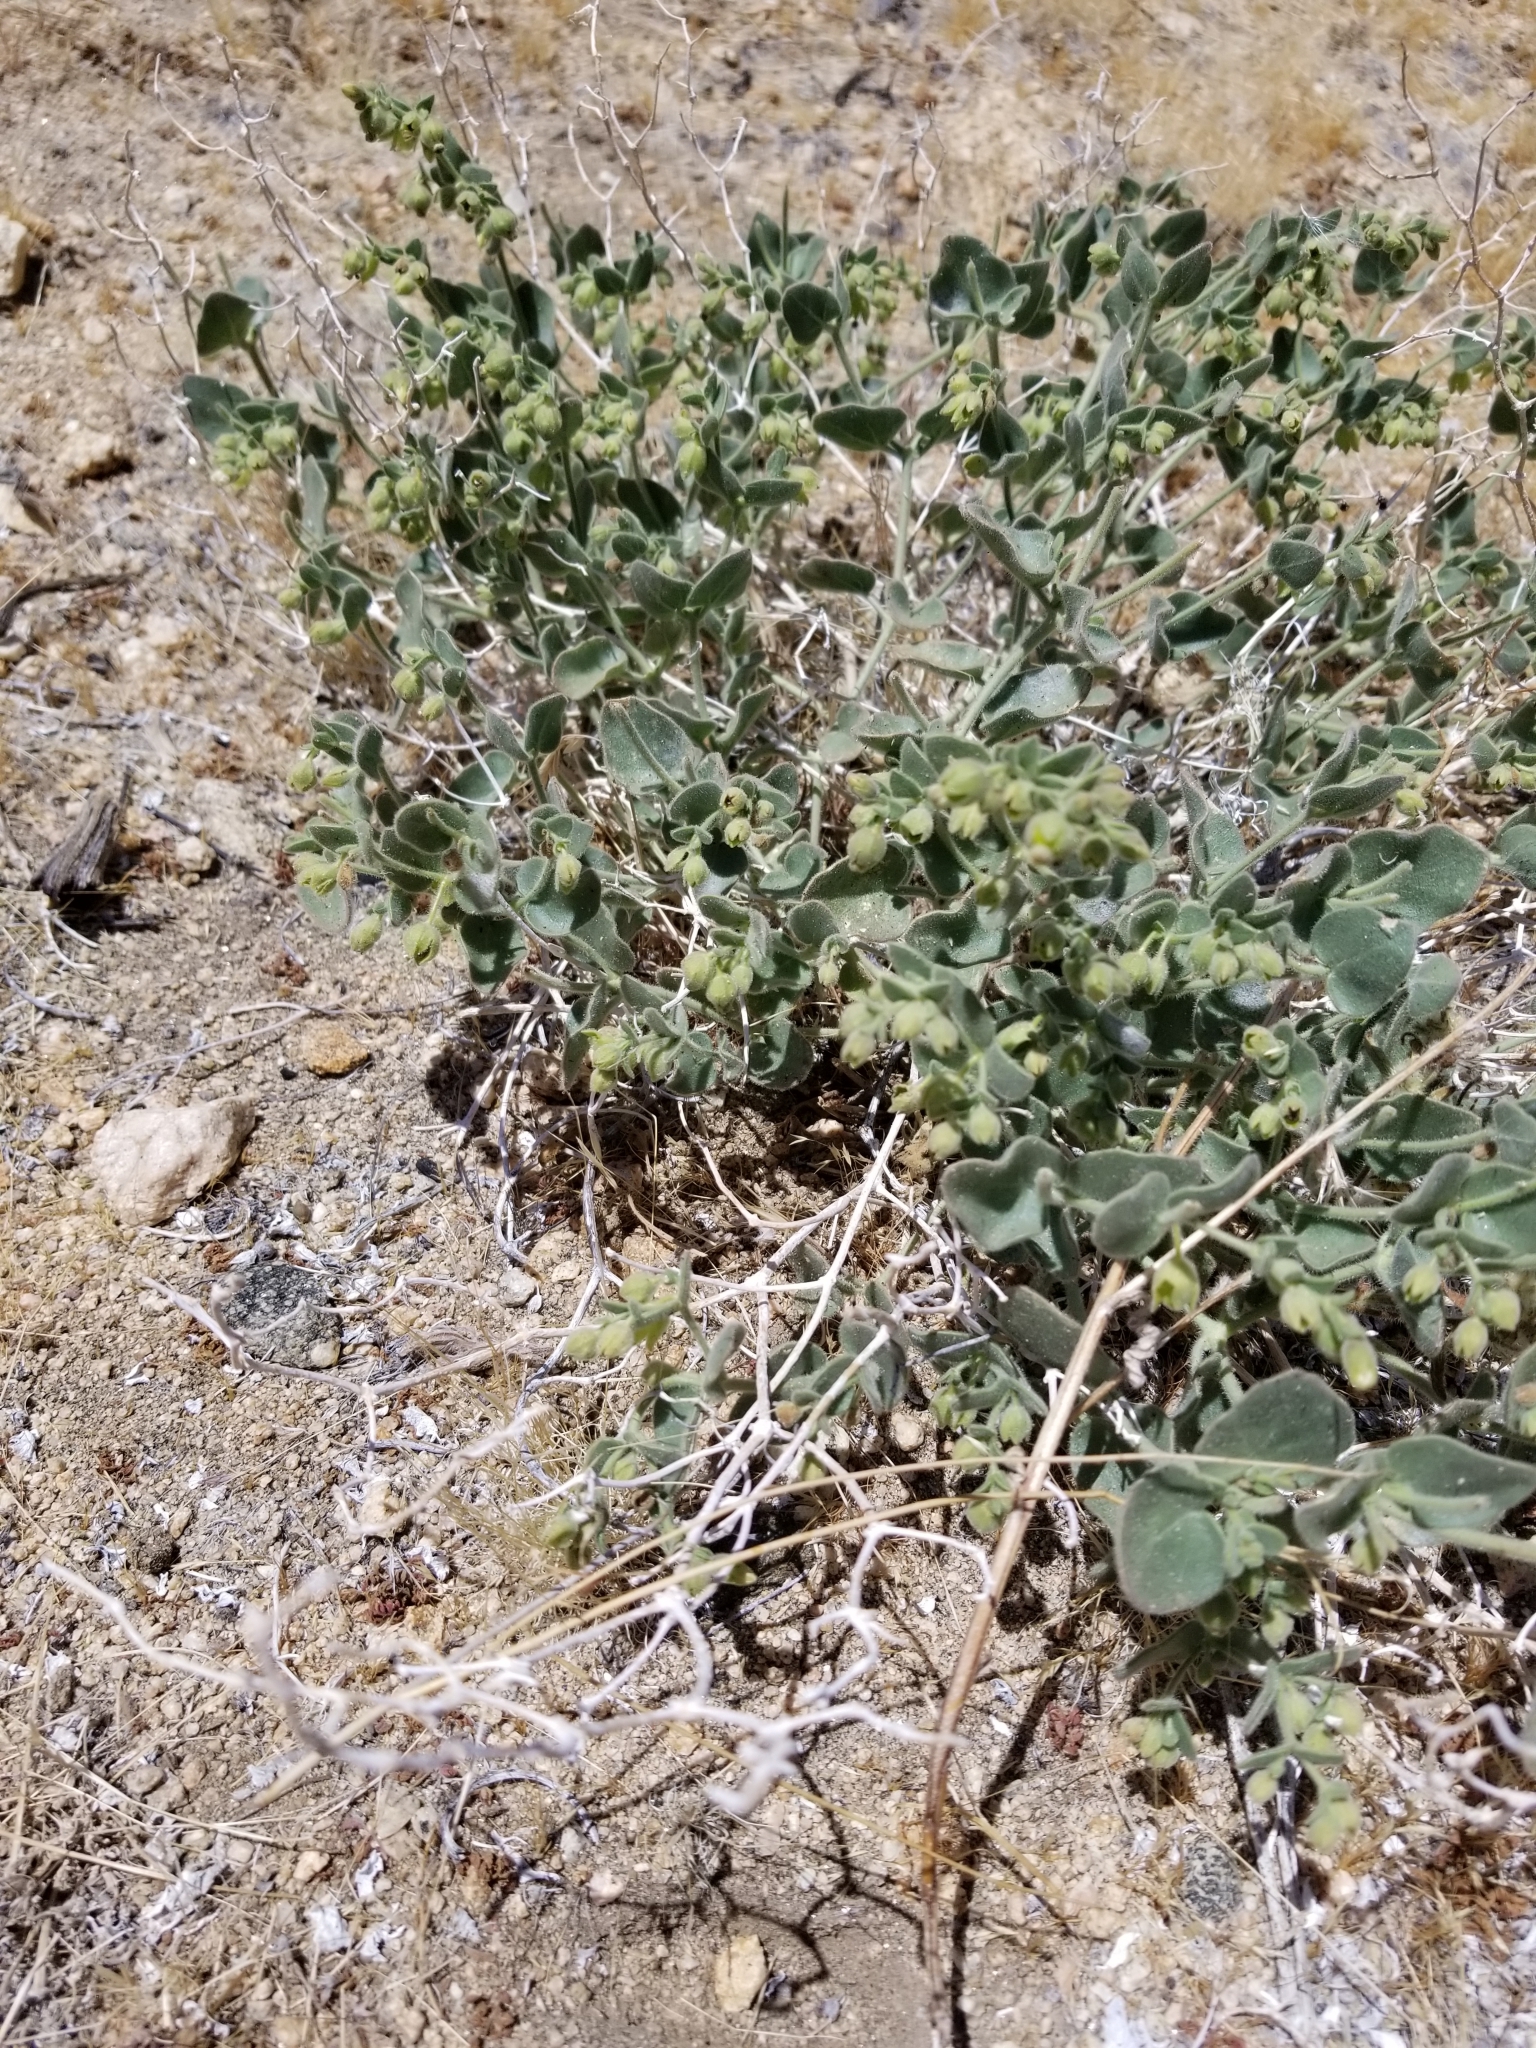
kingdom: Plantae
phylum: Tracheophyta
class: Magnoliopsida
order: Caryophyllales
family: Nyctaginaceae
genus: Mirabilis
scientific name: Mirabilis laevis
